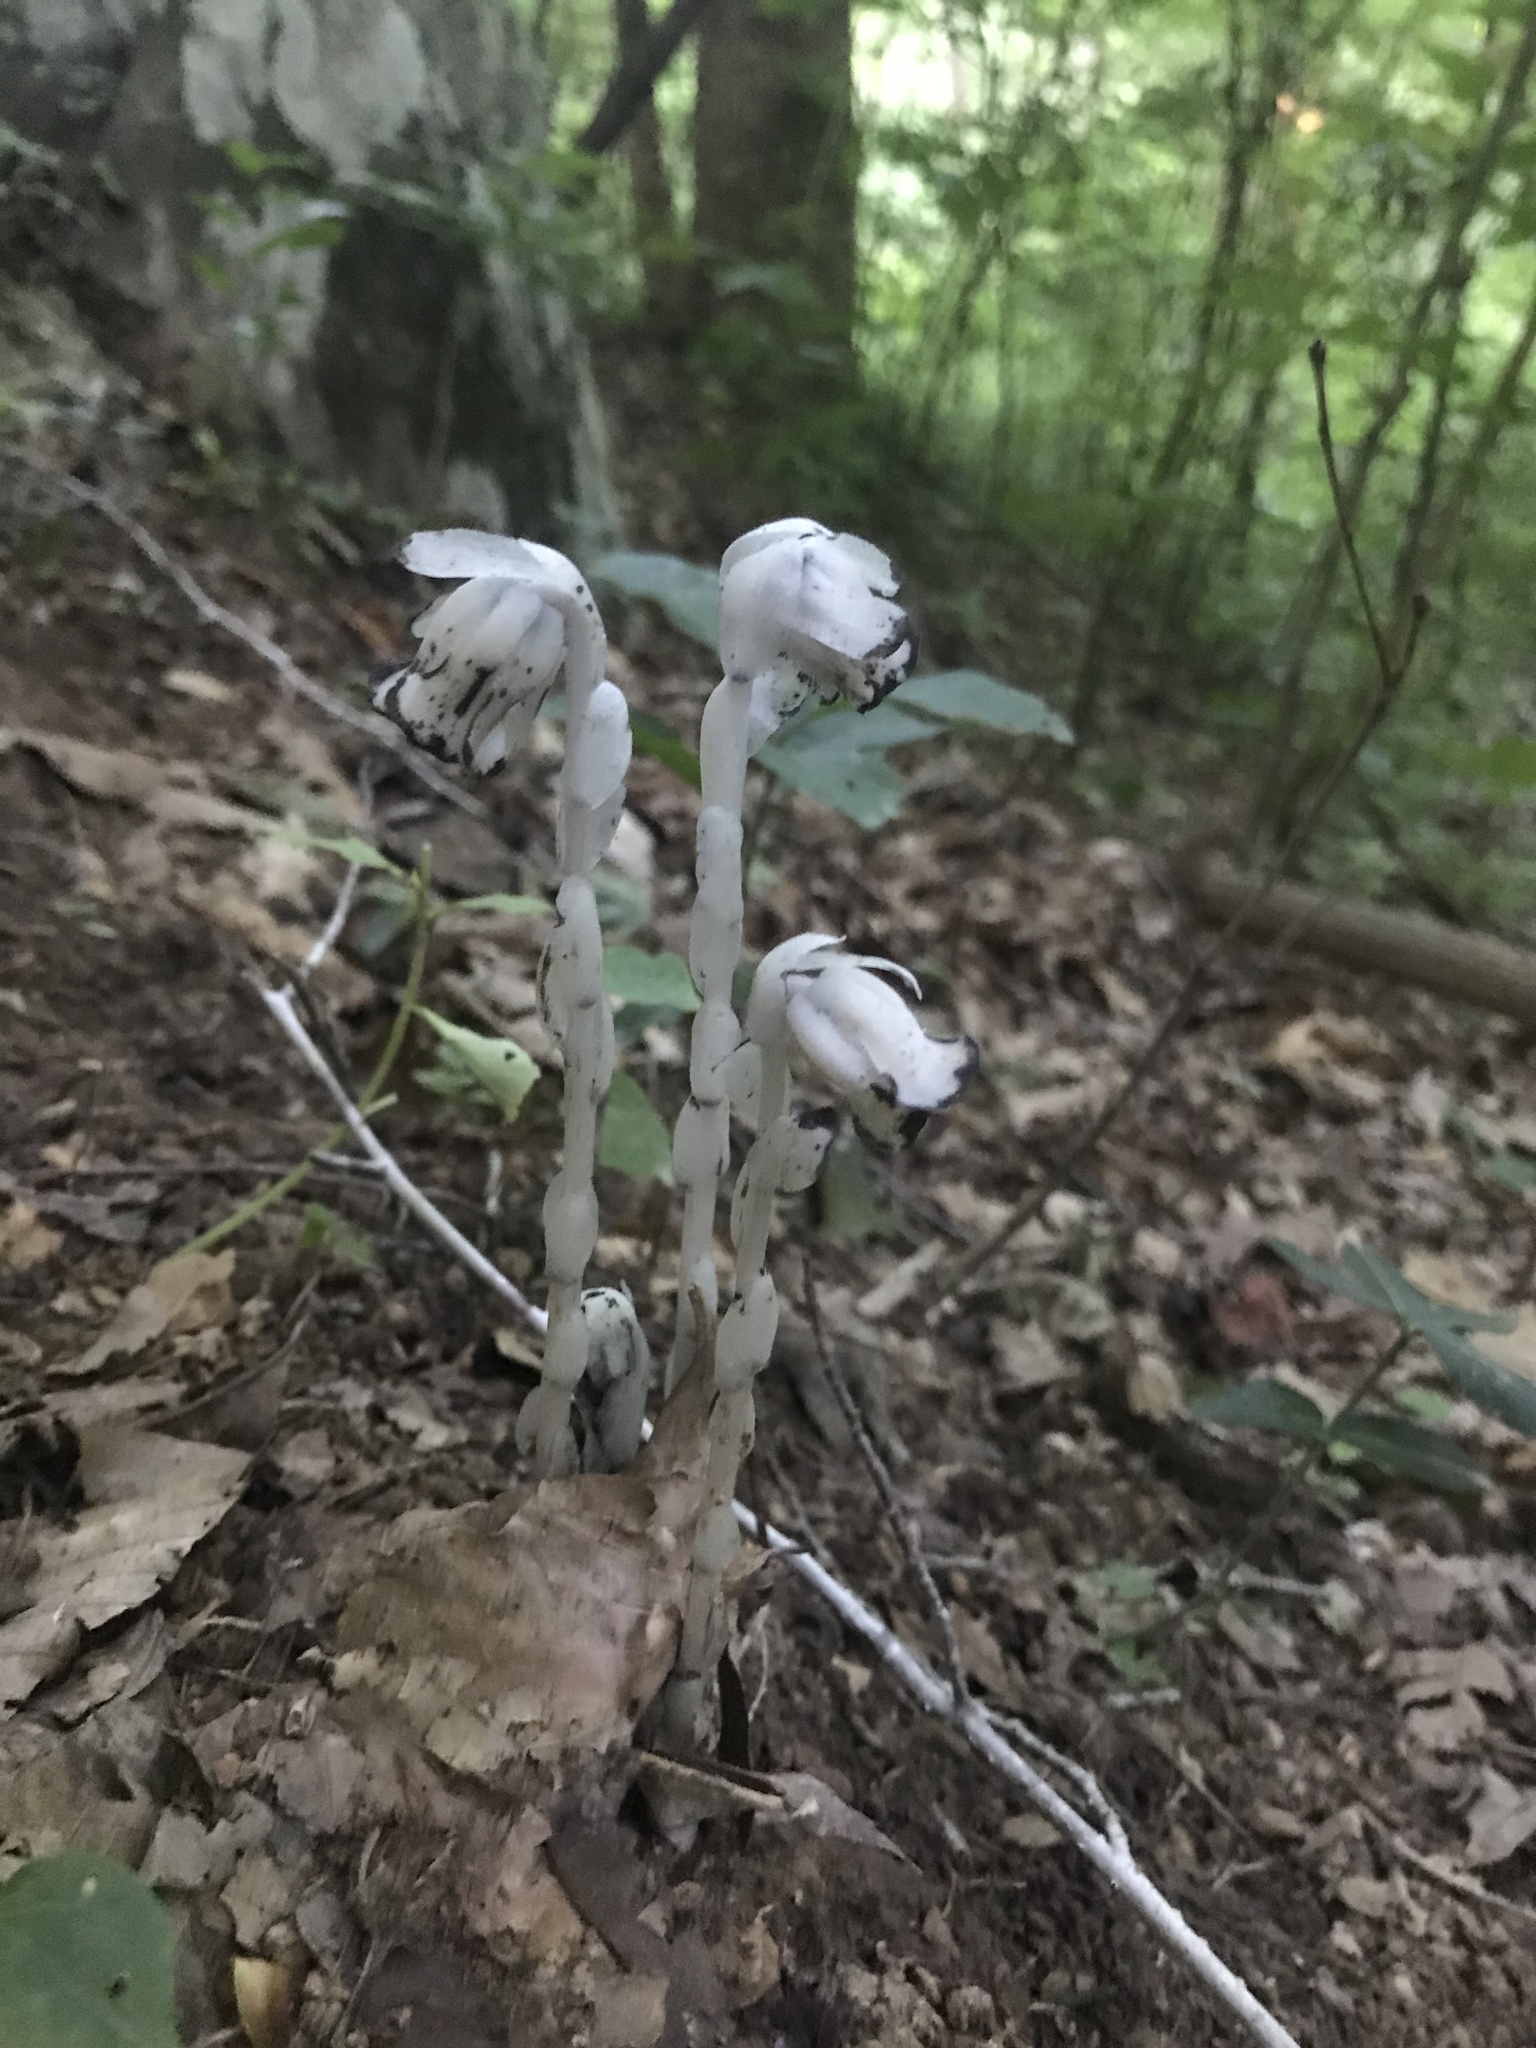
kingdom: Plantae
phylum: Tracheophyta
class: Magnoliopsida
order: Ericales
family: Ericaceae
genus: Monotropa
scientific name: Monotropa uniflora
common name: Convulsion root
